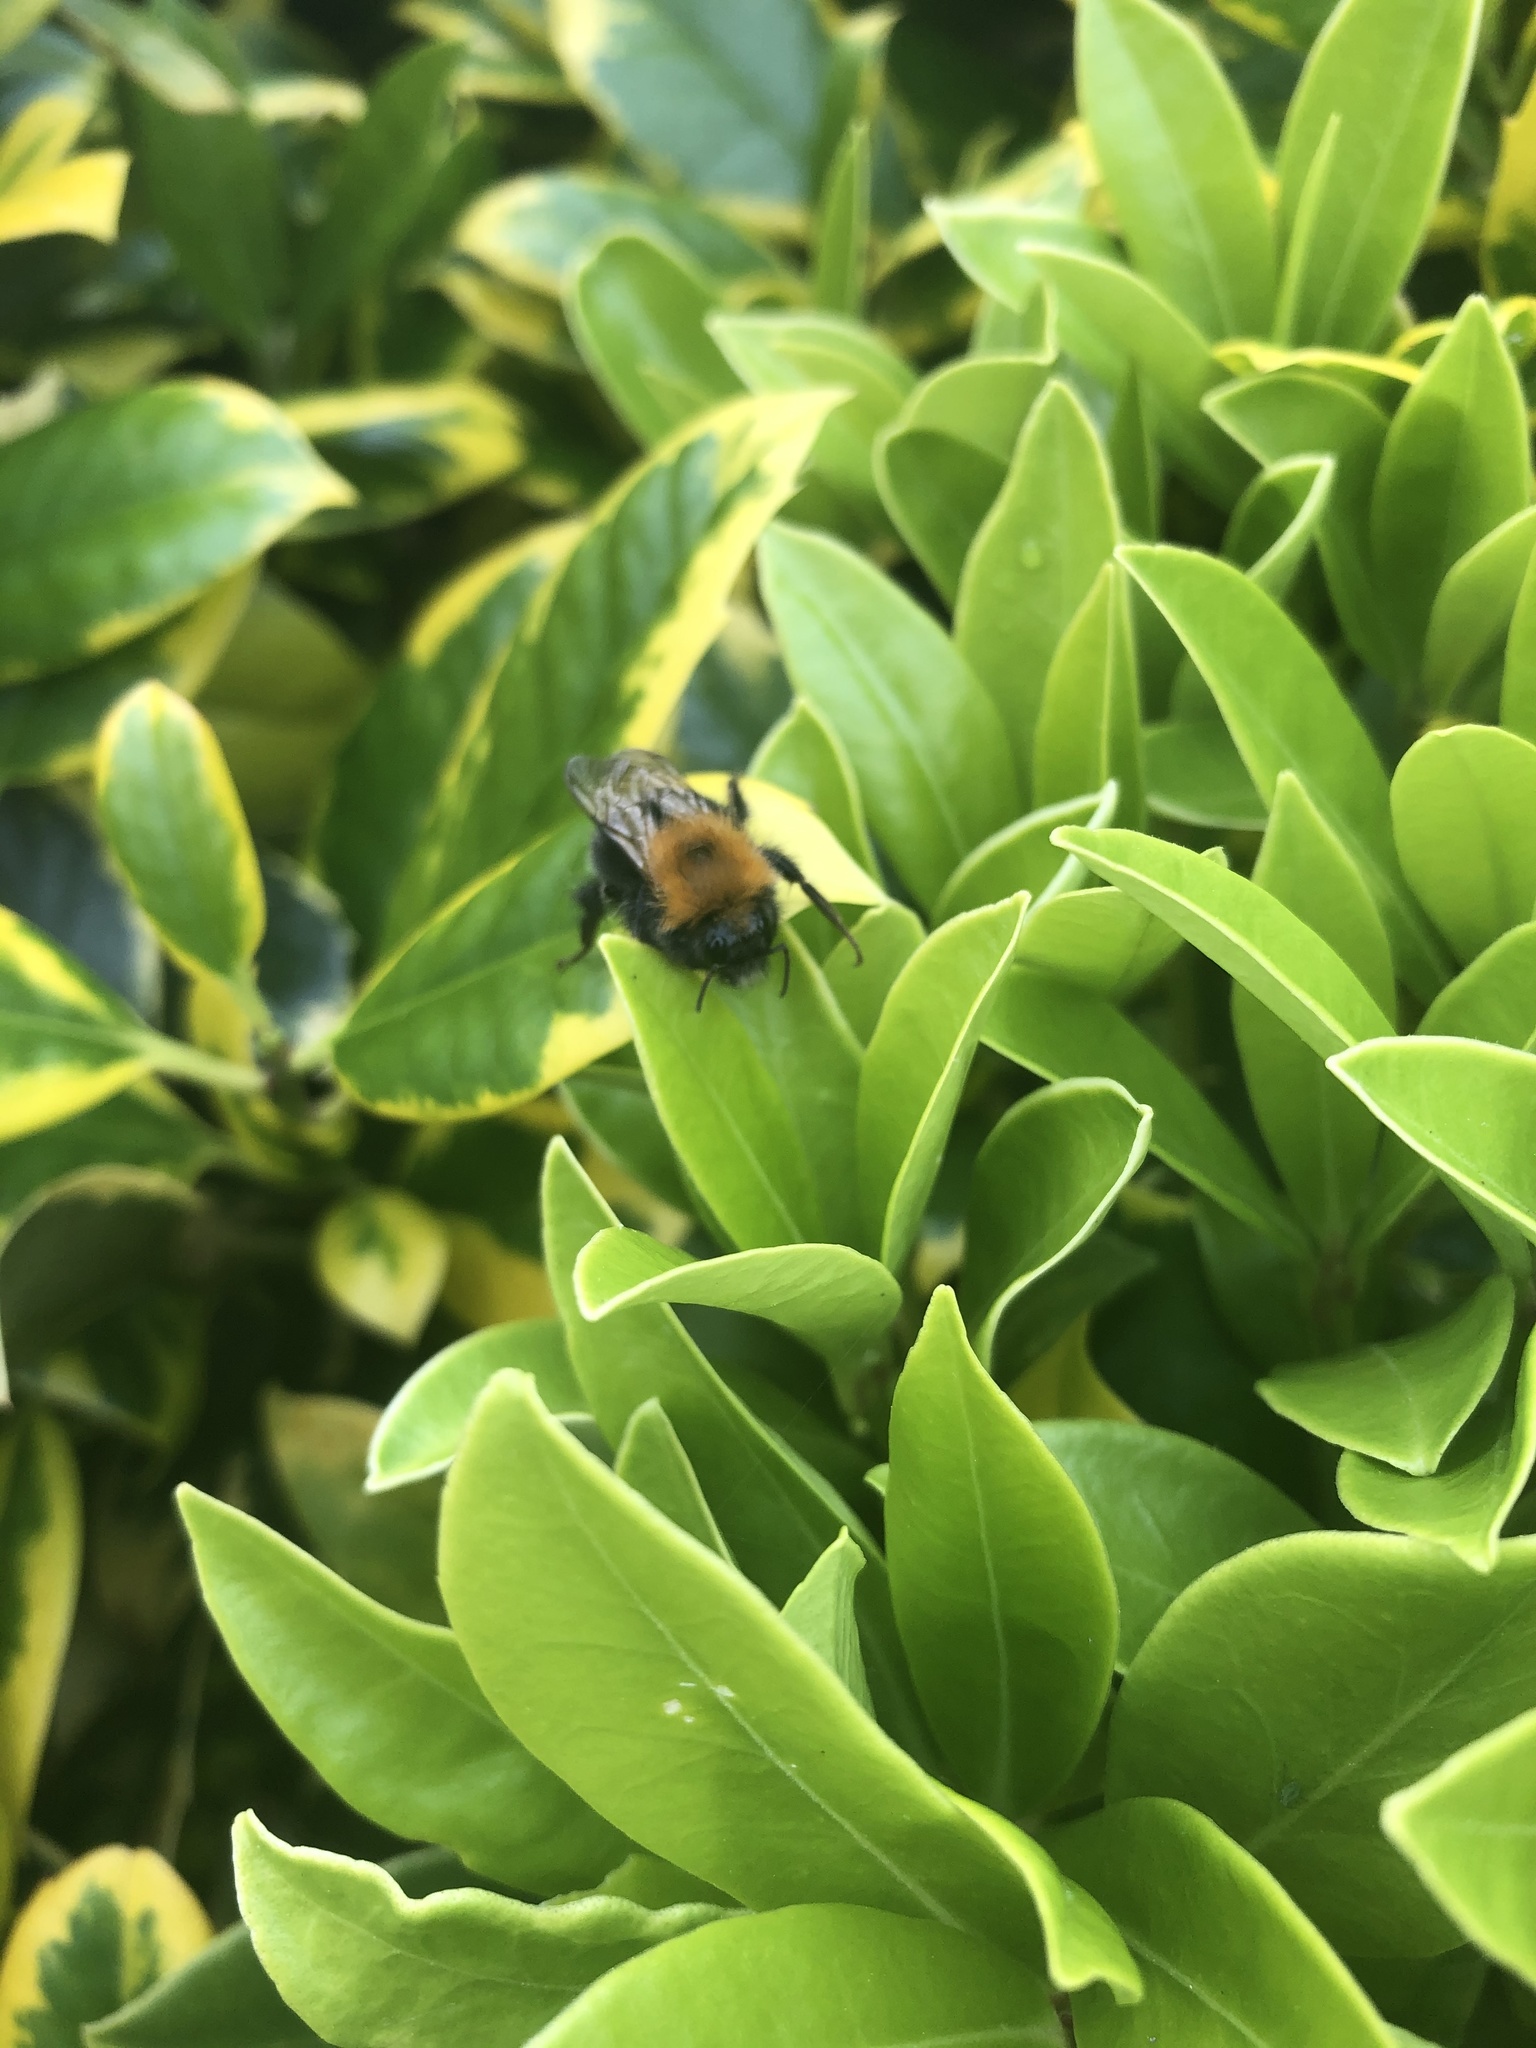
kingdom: Animalia
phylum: Arthropoda
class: Insecta
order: Hymenoptera
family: Apidae
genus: Bombus
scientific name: Bombus hypnorum
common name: New garden bumblebee
